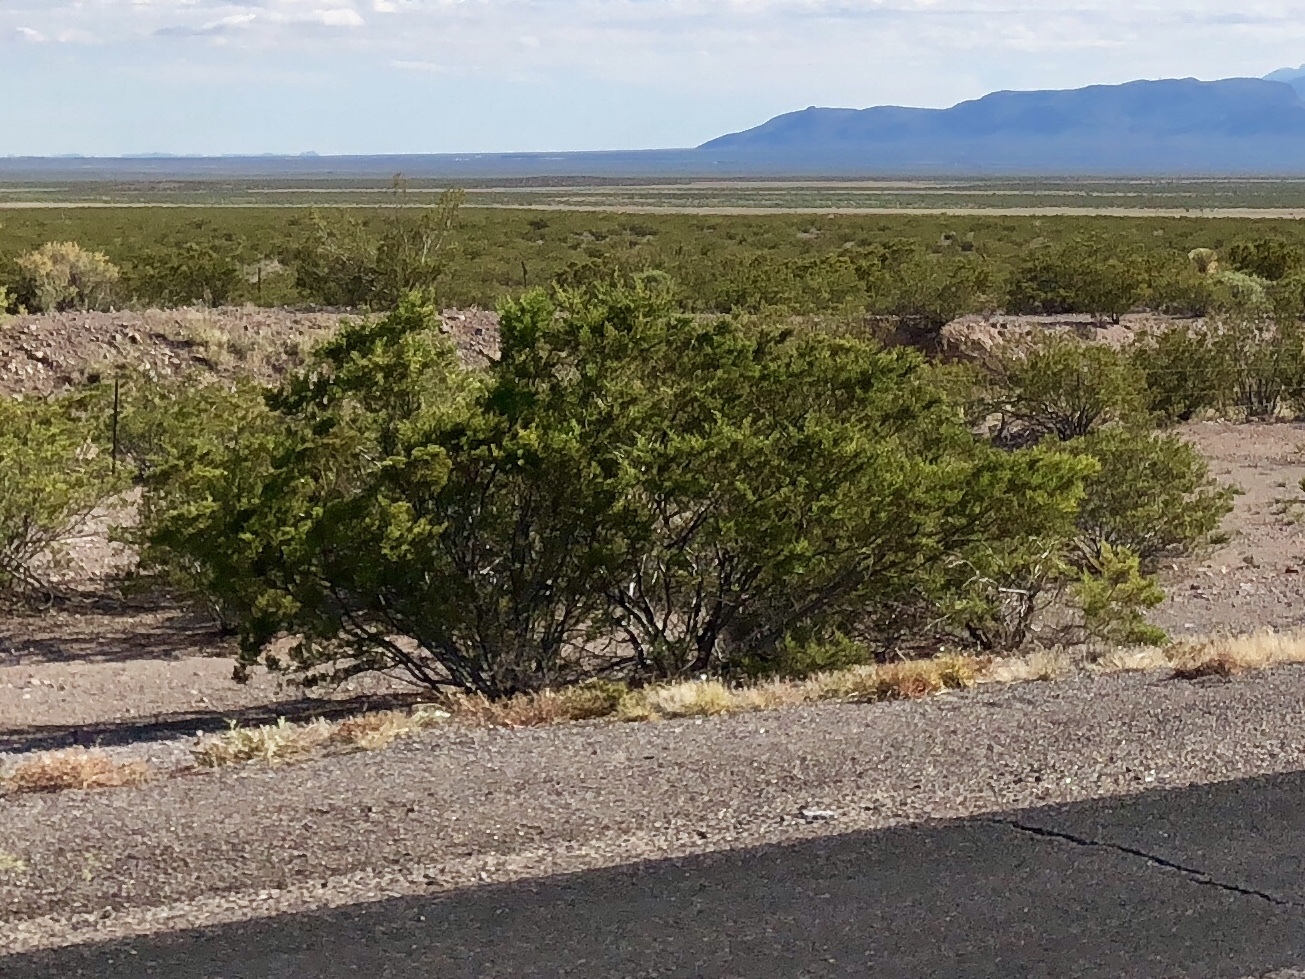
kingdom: Plantae
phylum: Tracheophyta
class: Magnoliopsida
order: Zygophyllales
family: Zygophyllaceae
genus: Larrea
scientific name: Larrea tridentata
